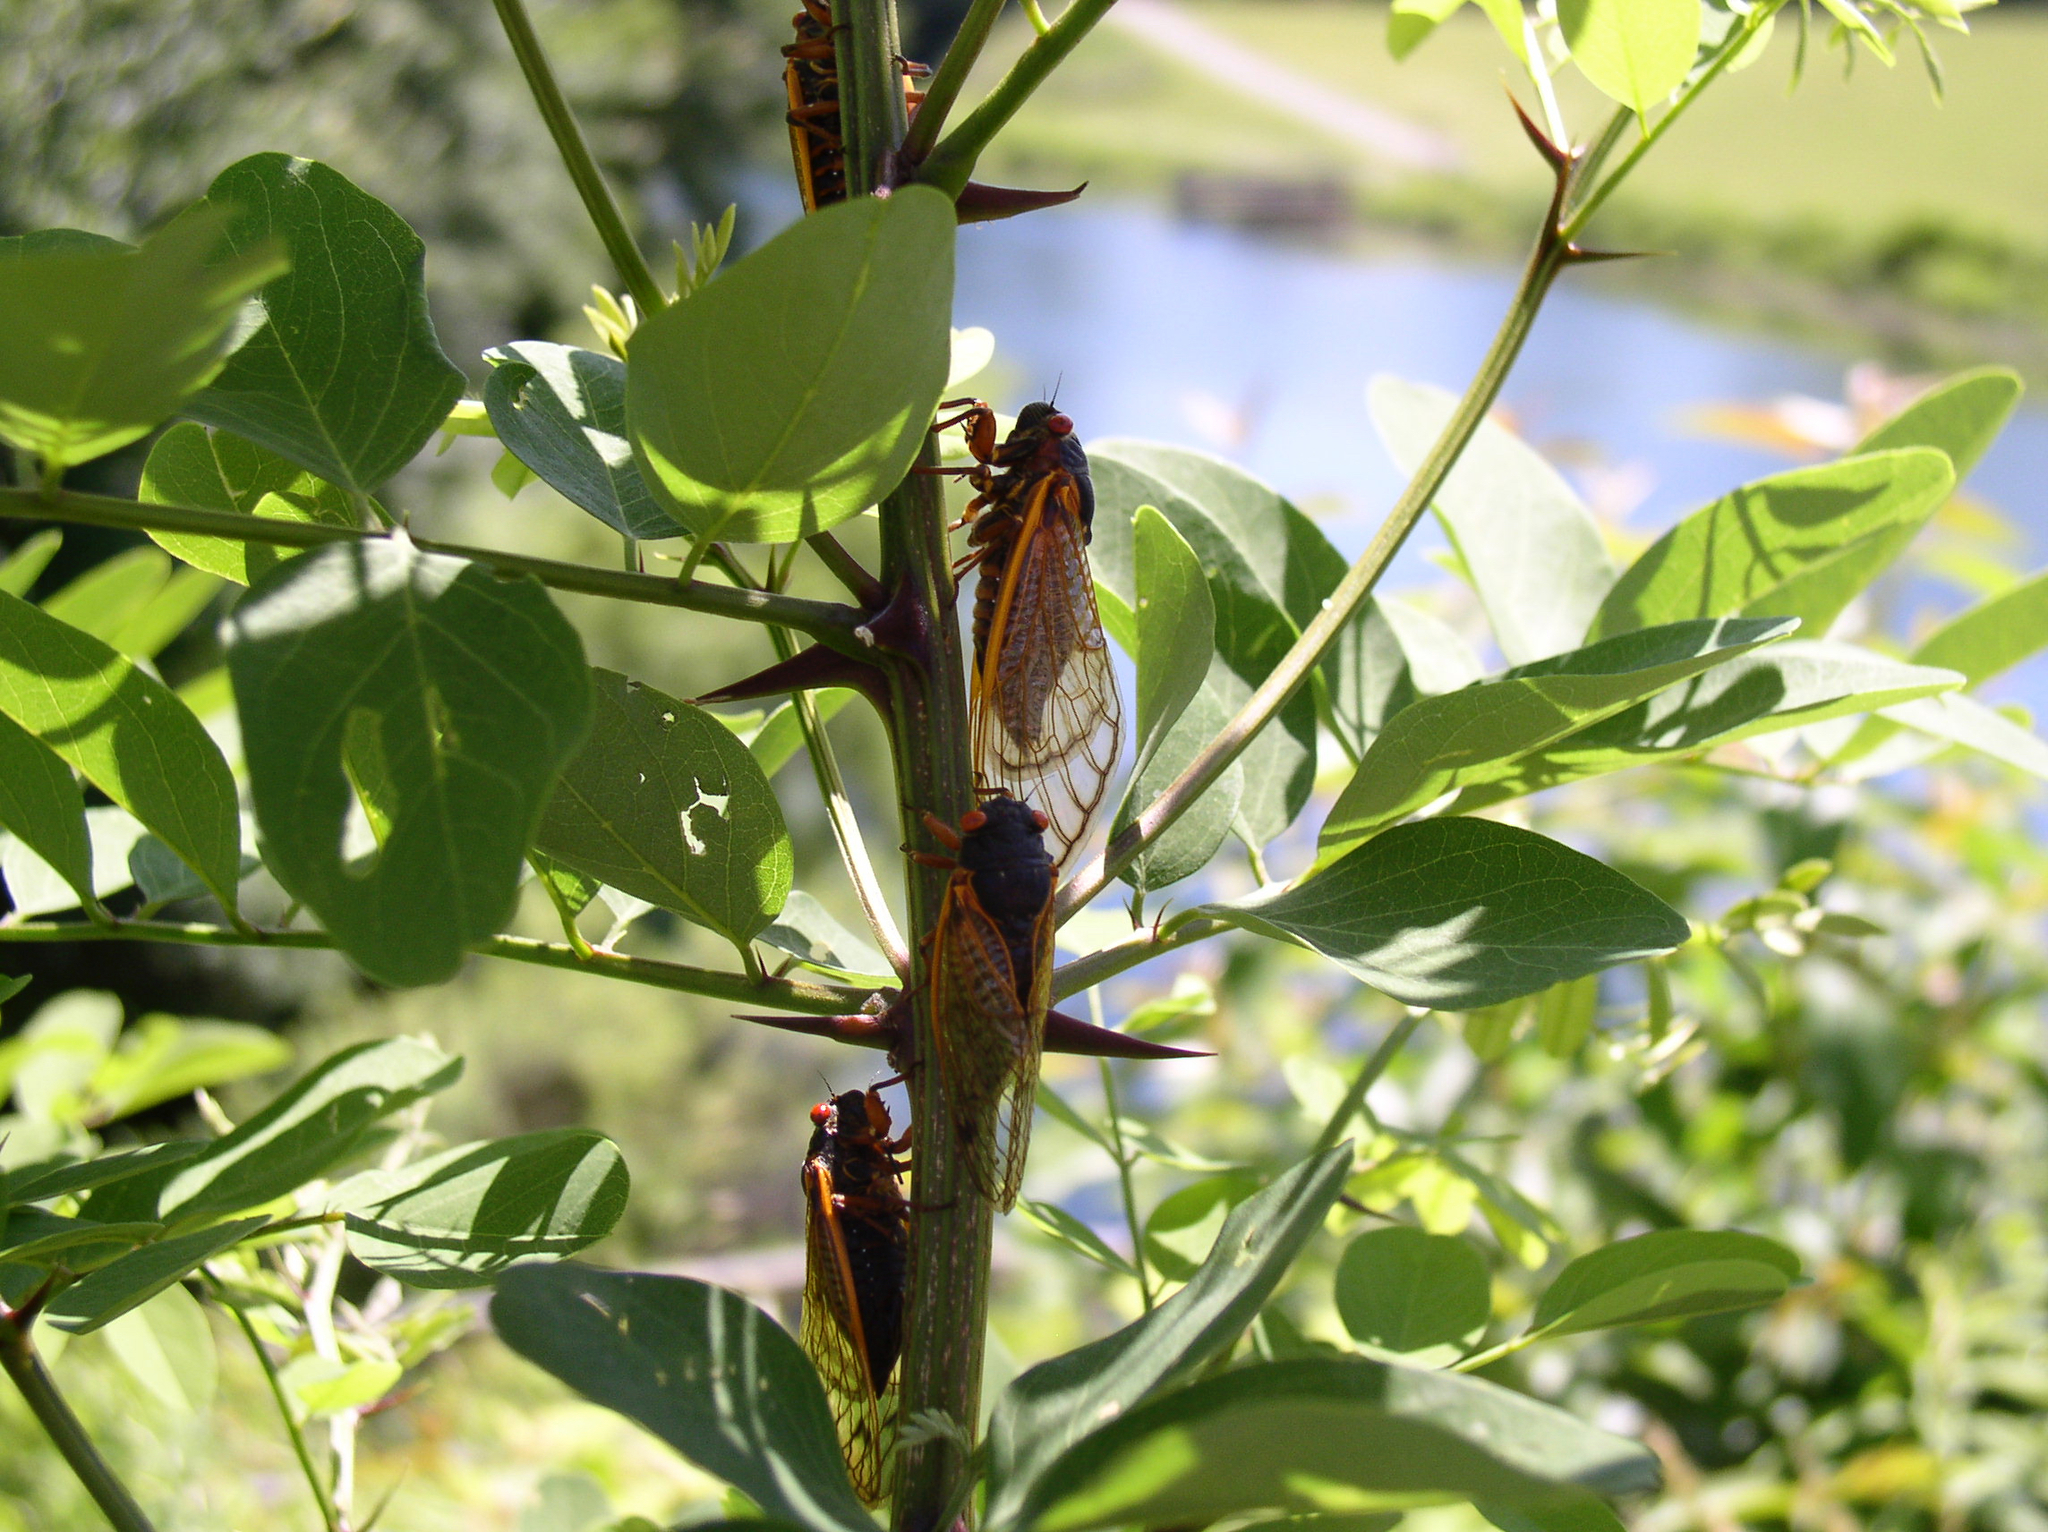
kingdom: Animalia
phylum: Arthropoda
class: Insecta
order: Hemiptera
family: Cicadidae
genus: Magicicada
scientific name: Magicicada septendecim
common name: Periodical cicada
